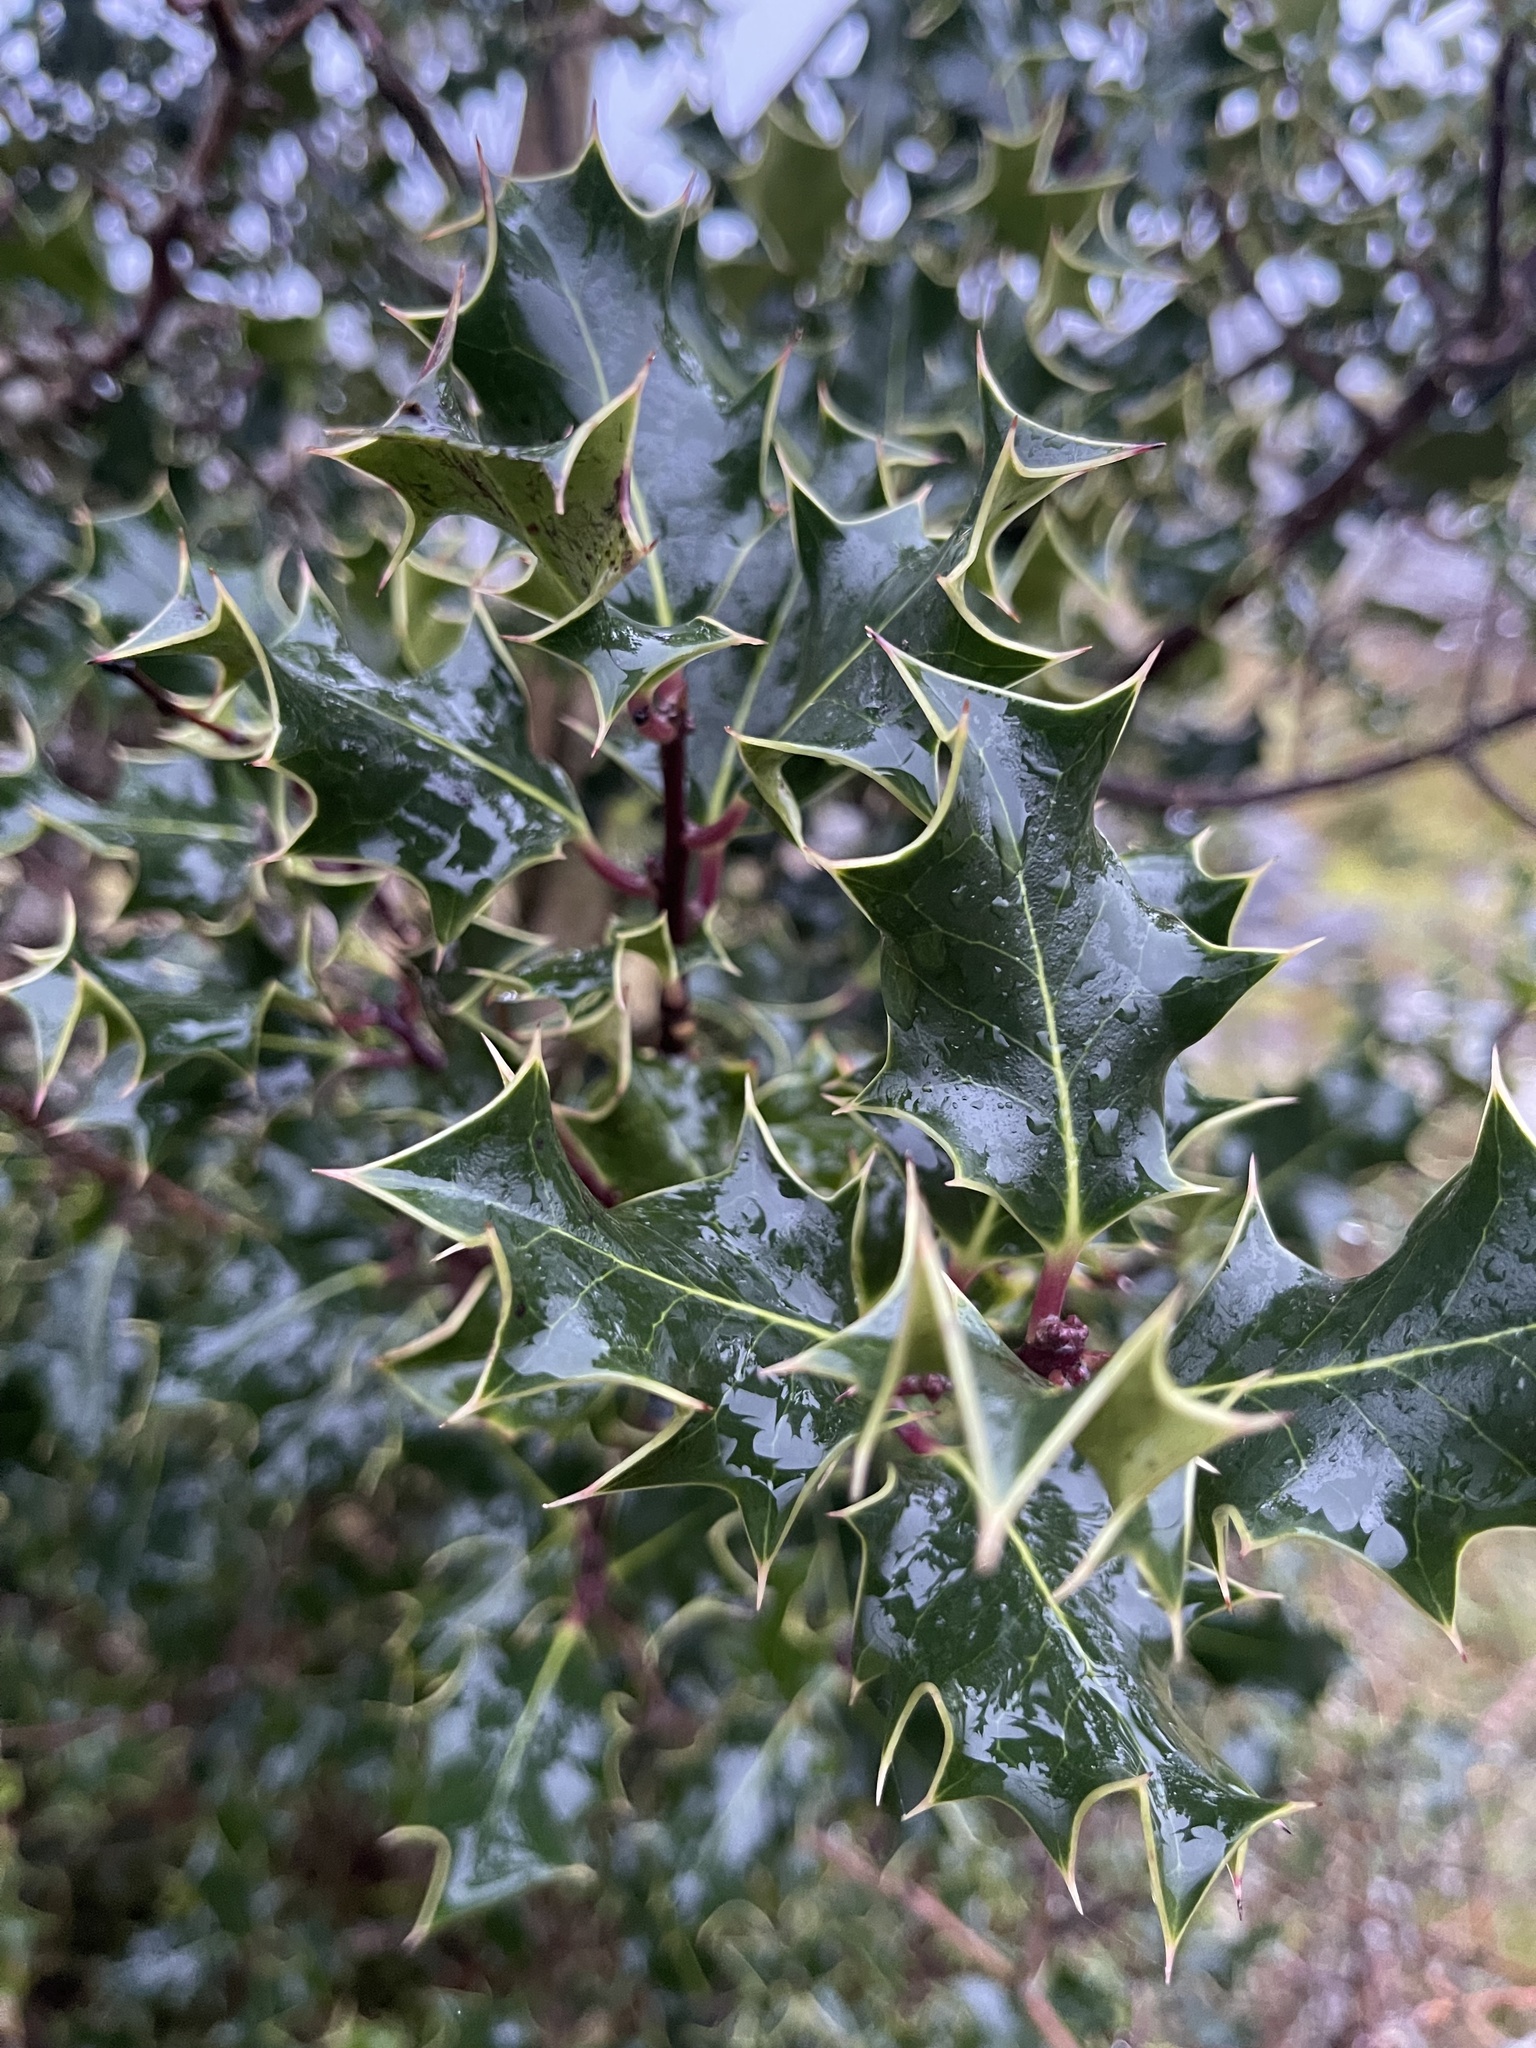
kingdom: Plantae
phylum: Tracheophyta
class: Magnoliopsida
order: Aquifoliales
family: Aquifoliaceae
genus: Ilex
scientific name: Ilex aquifolium
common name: English holly
